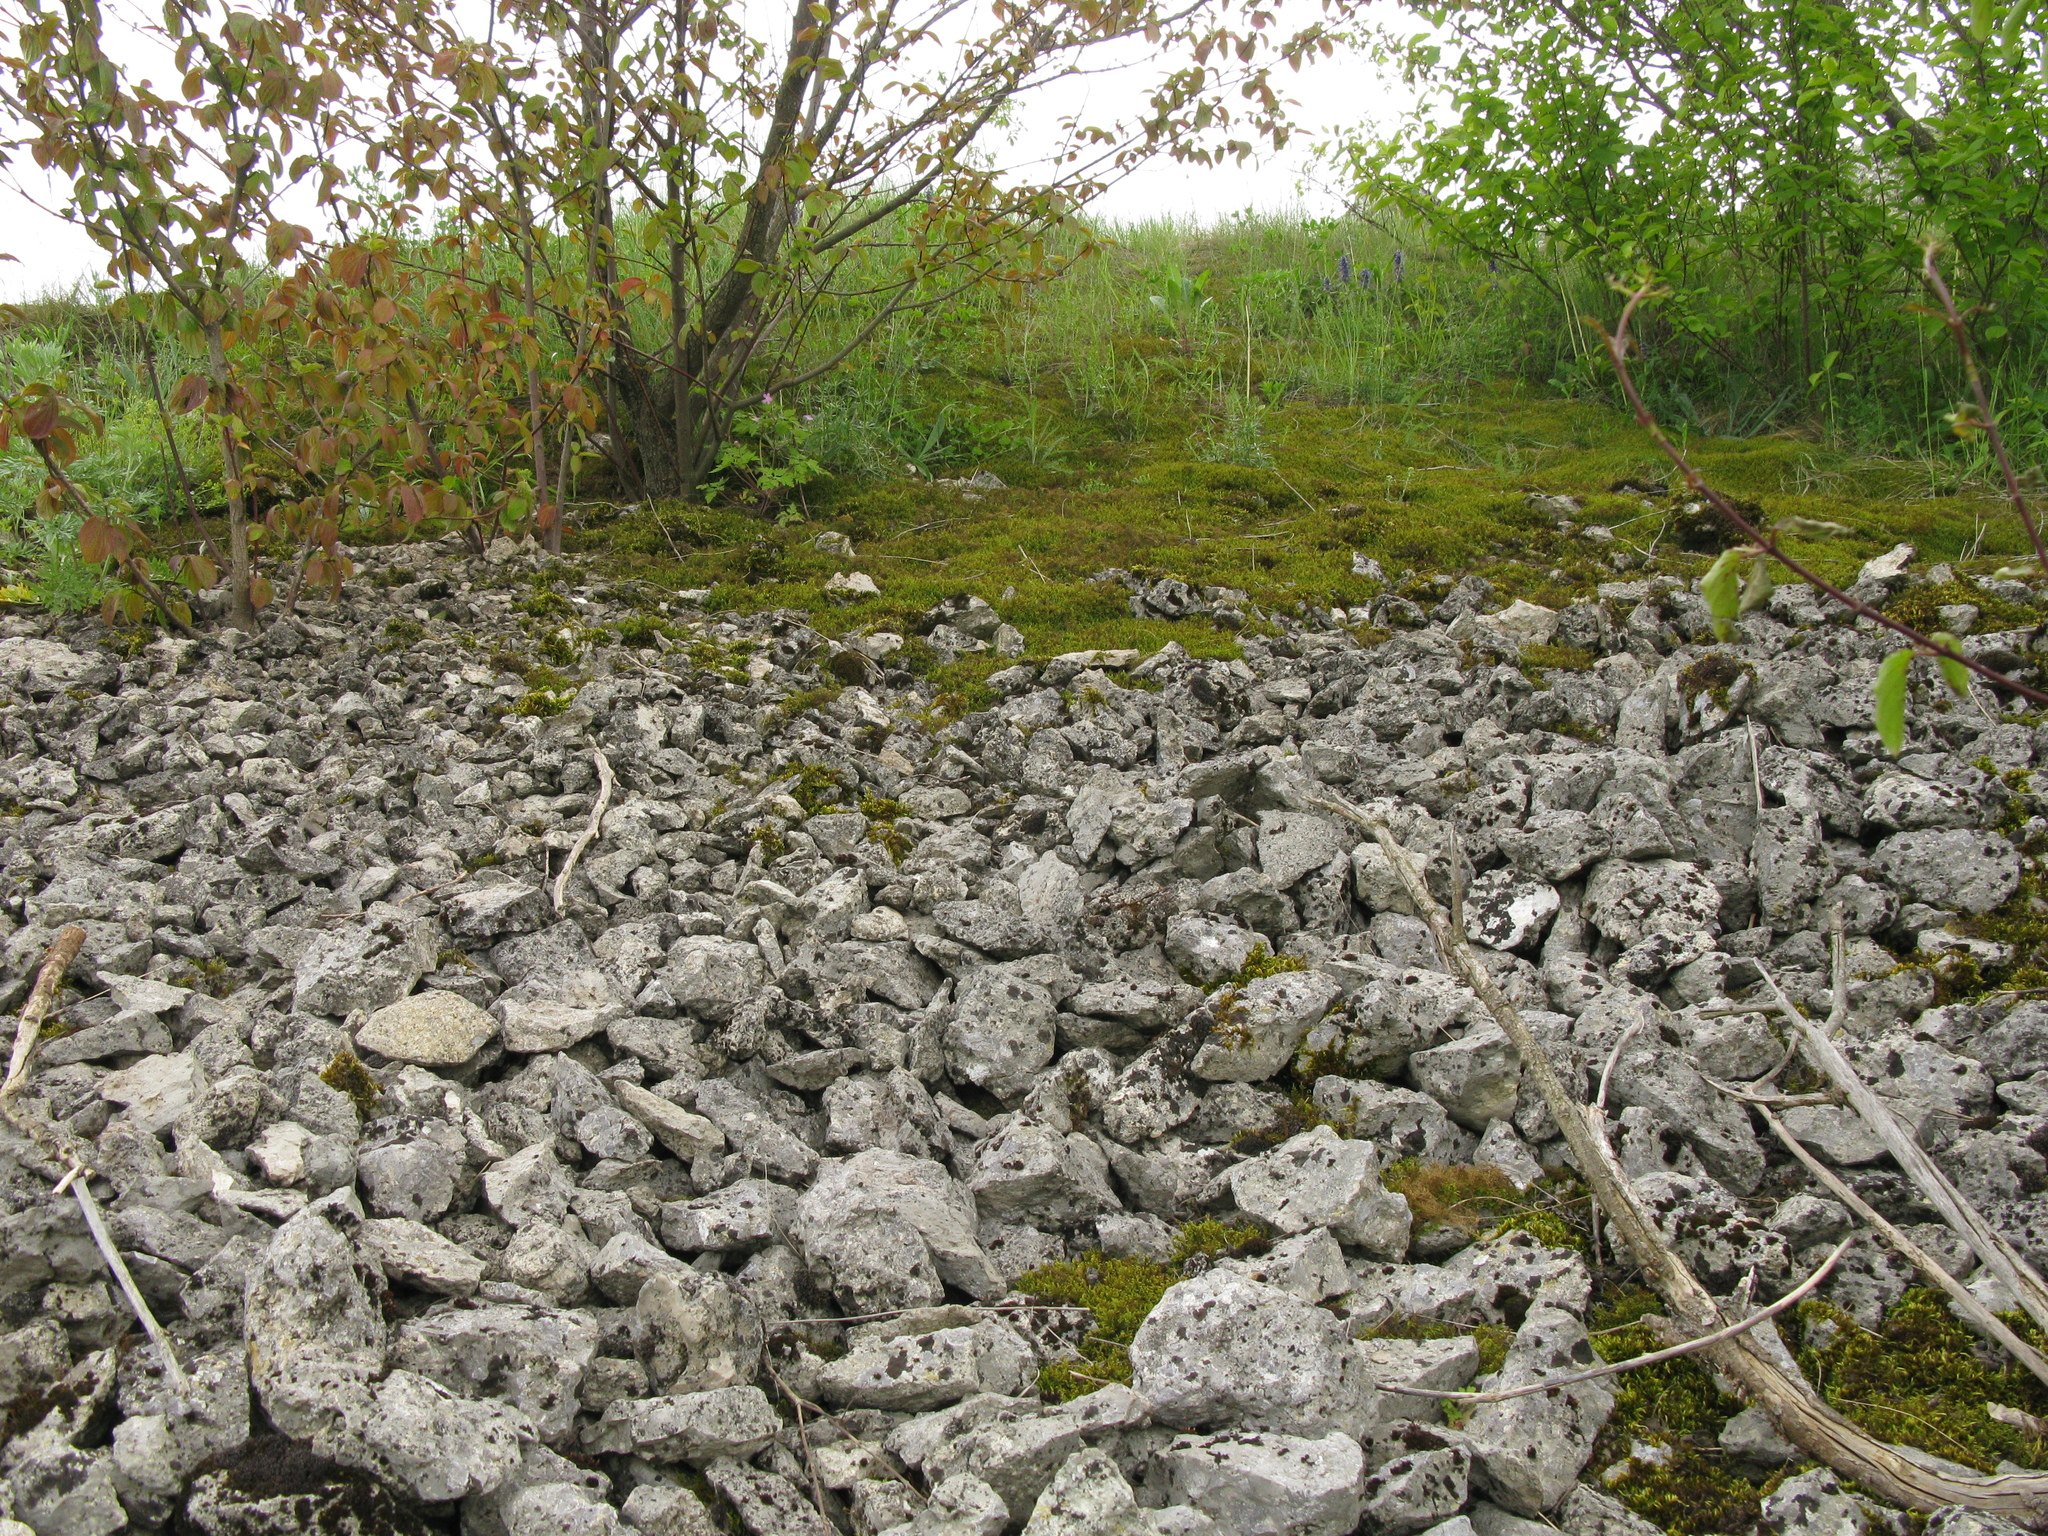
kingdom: Plantae
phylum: Tracheophyta
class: Magnoliopsida
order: Geraniales
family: Geraniaceae
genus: Geranium
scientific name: Geranium robertianum
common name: Herb-robert
